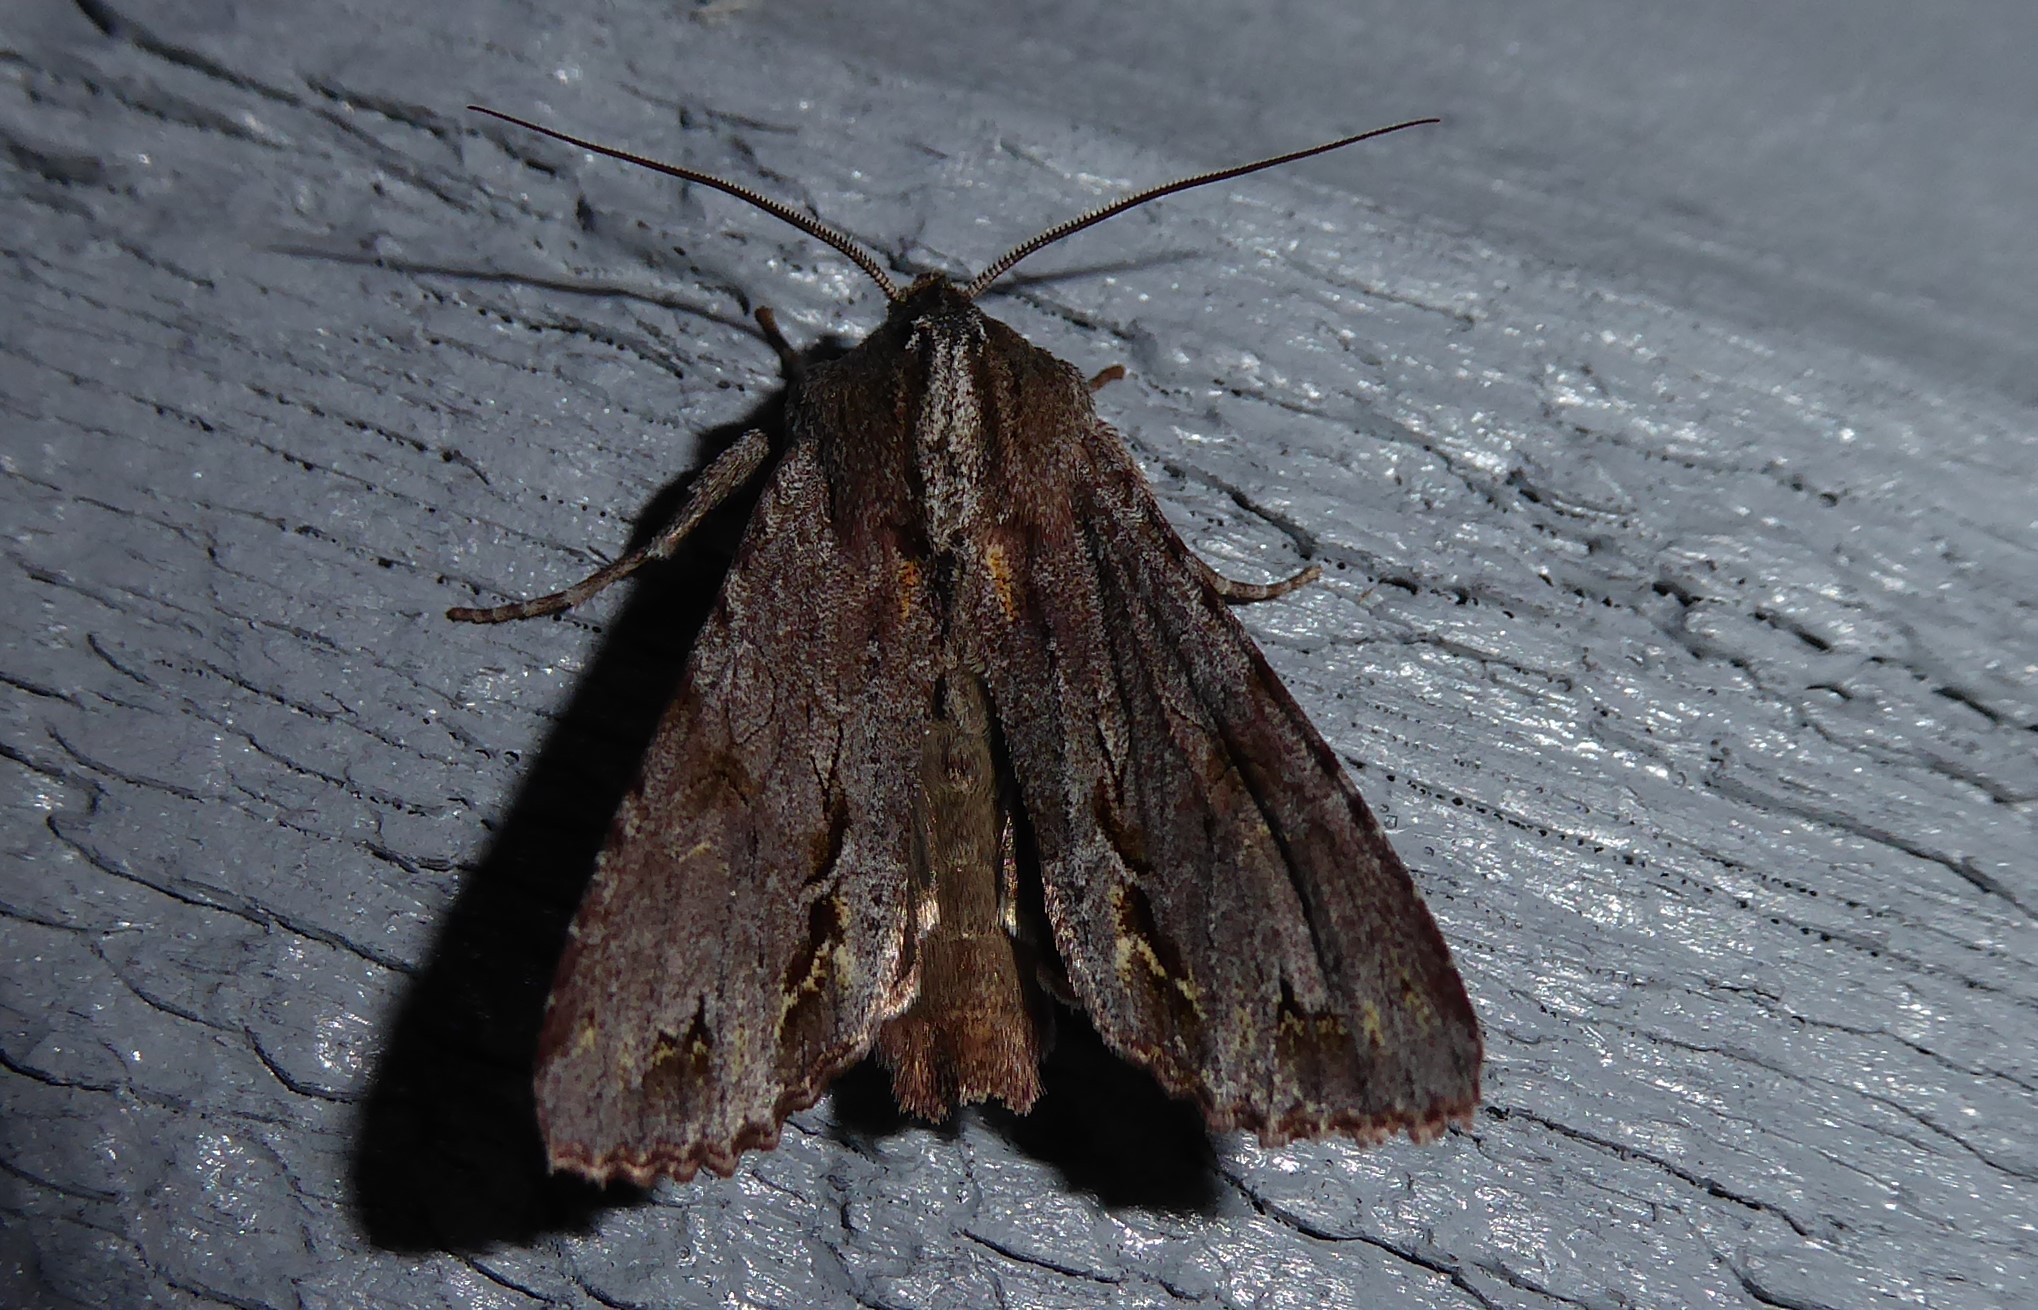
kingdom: Animalia
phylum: Arthropoda
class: Insecta
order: Lepidoptera
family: Noctuidae
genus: Ichneutica
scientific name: Ichneutica
